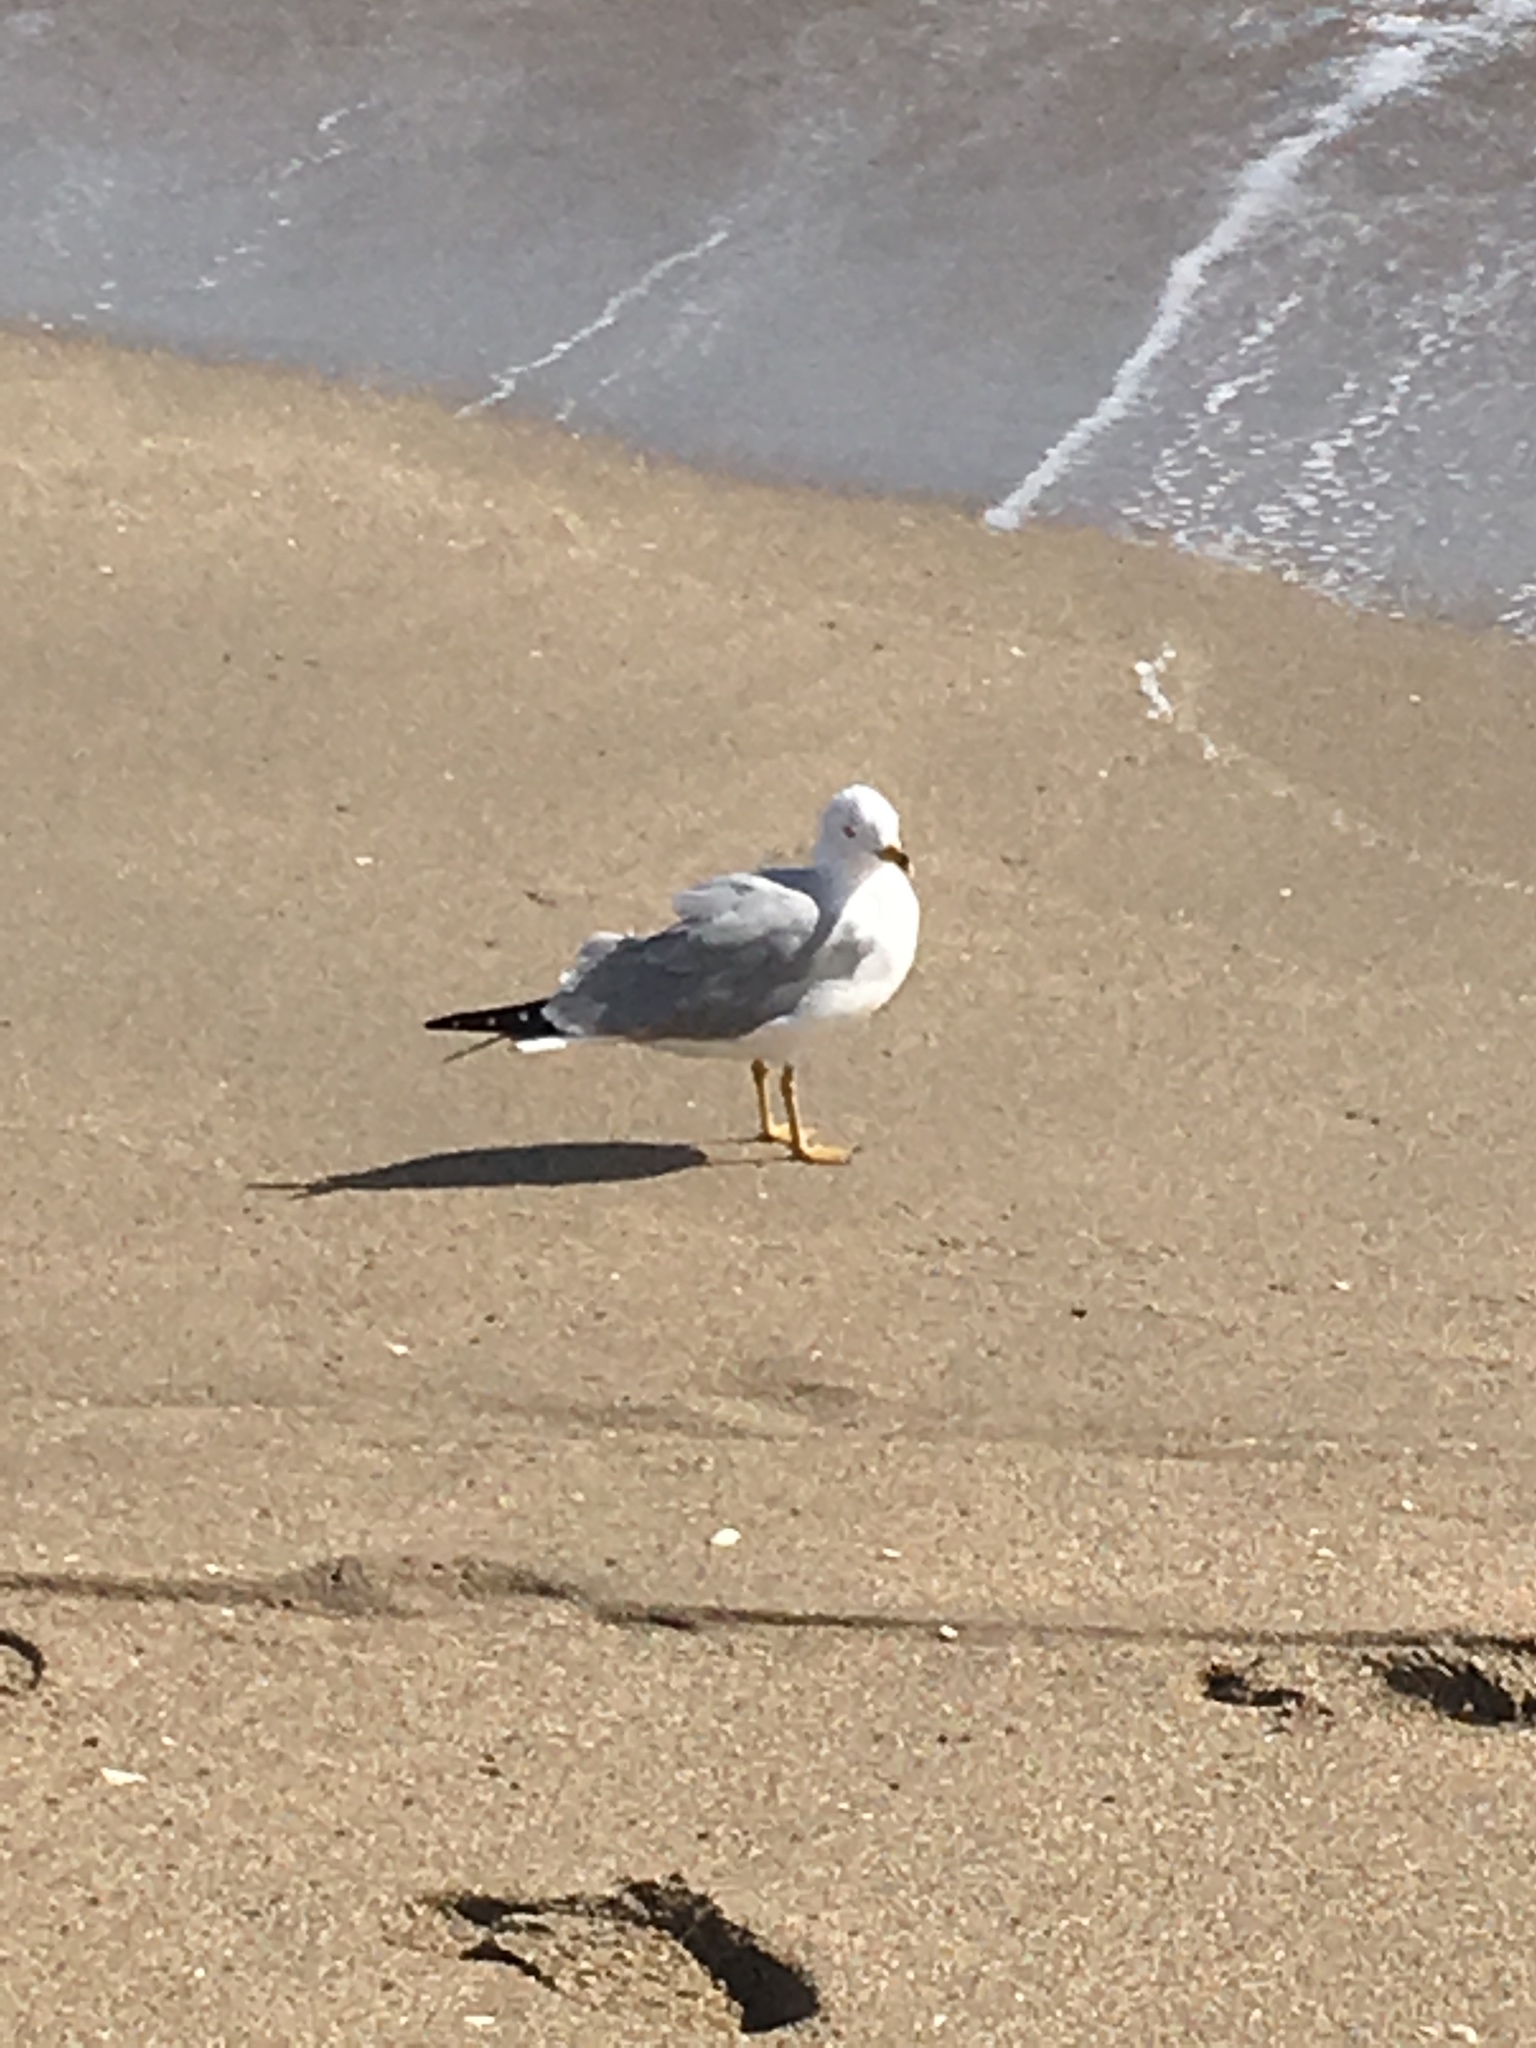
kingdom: Animalia
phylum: Chordata
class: Aves
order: Charadriiformes
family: Laridae
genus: Larus
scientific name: Larus delawarensis
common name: Ring-billed gull
